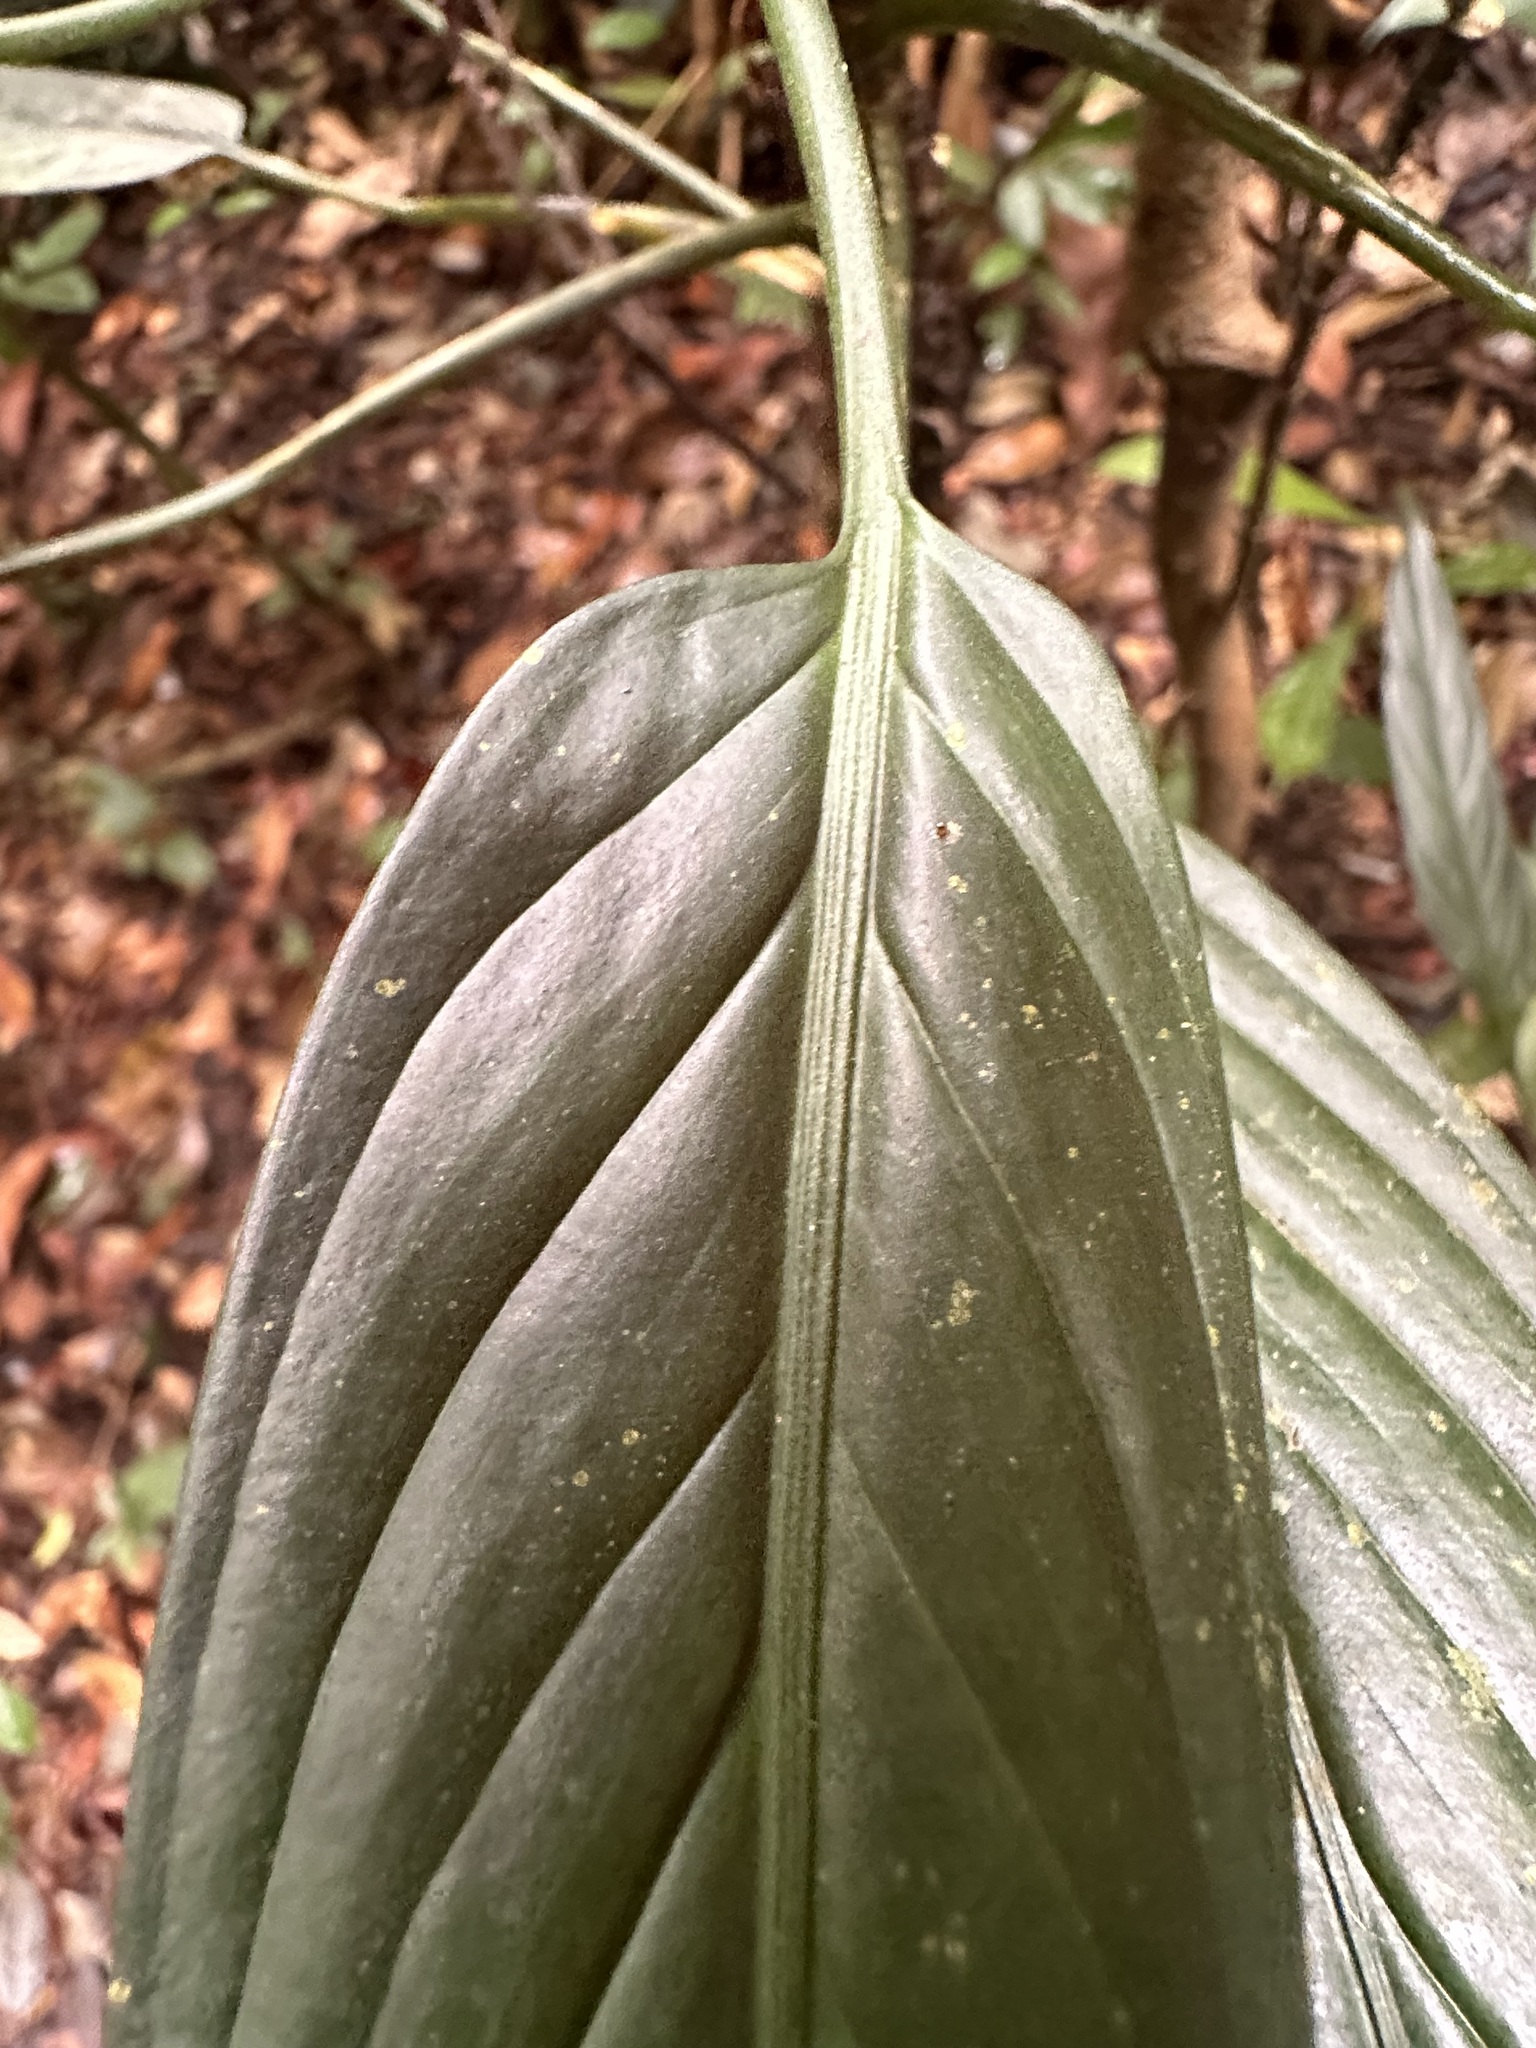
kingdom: Plantae
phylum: Tracheophyta
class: Liliopsida
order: Alismatales
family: Araceae
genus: Aglaonema
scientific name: Aglaonema simplex
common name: Malayan-sword
